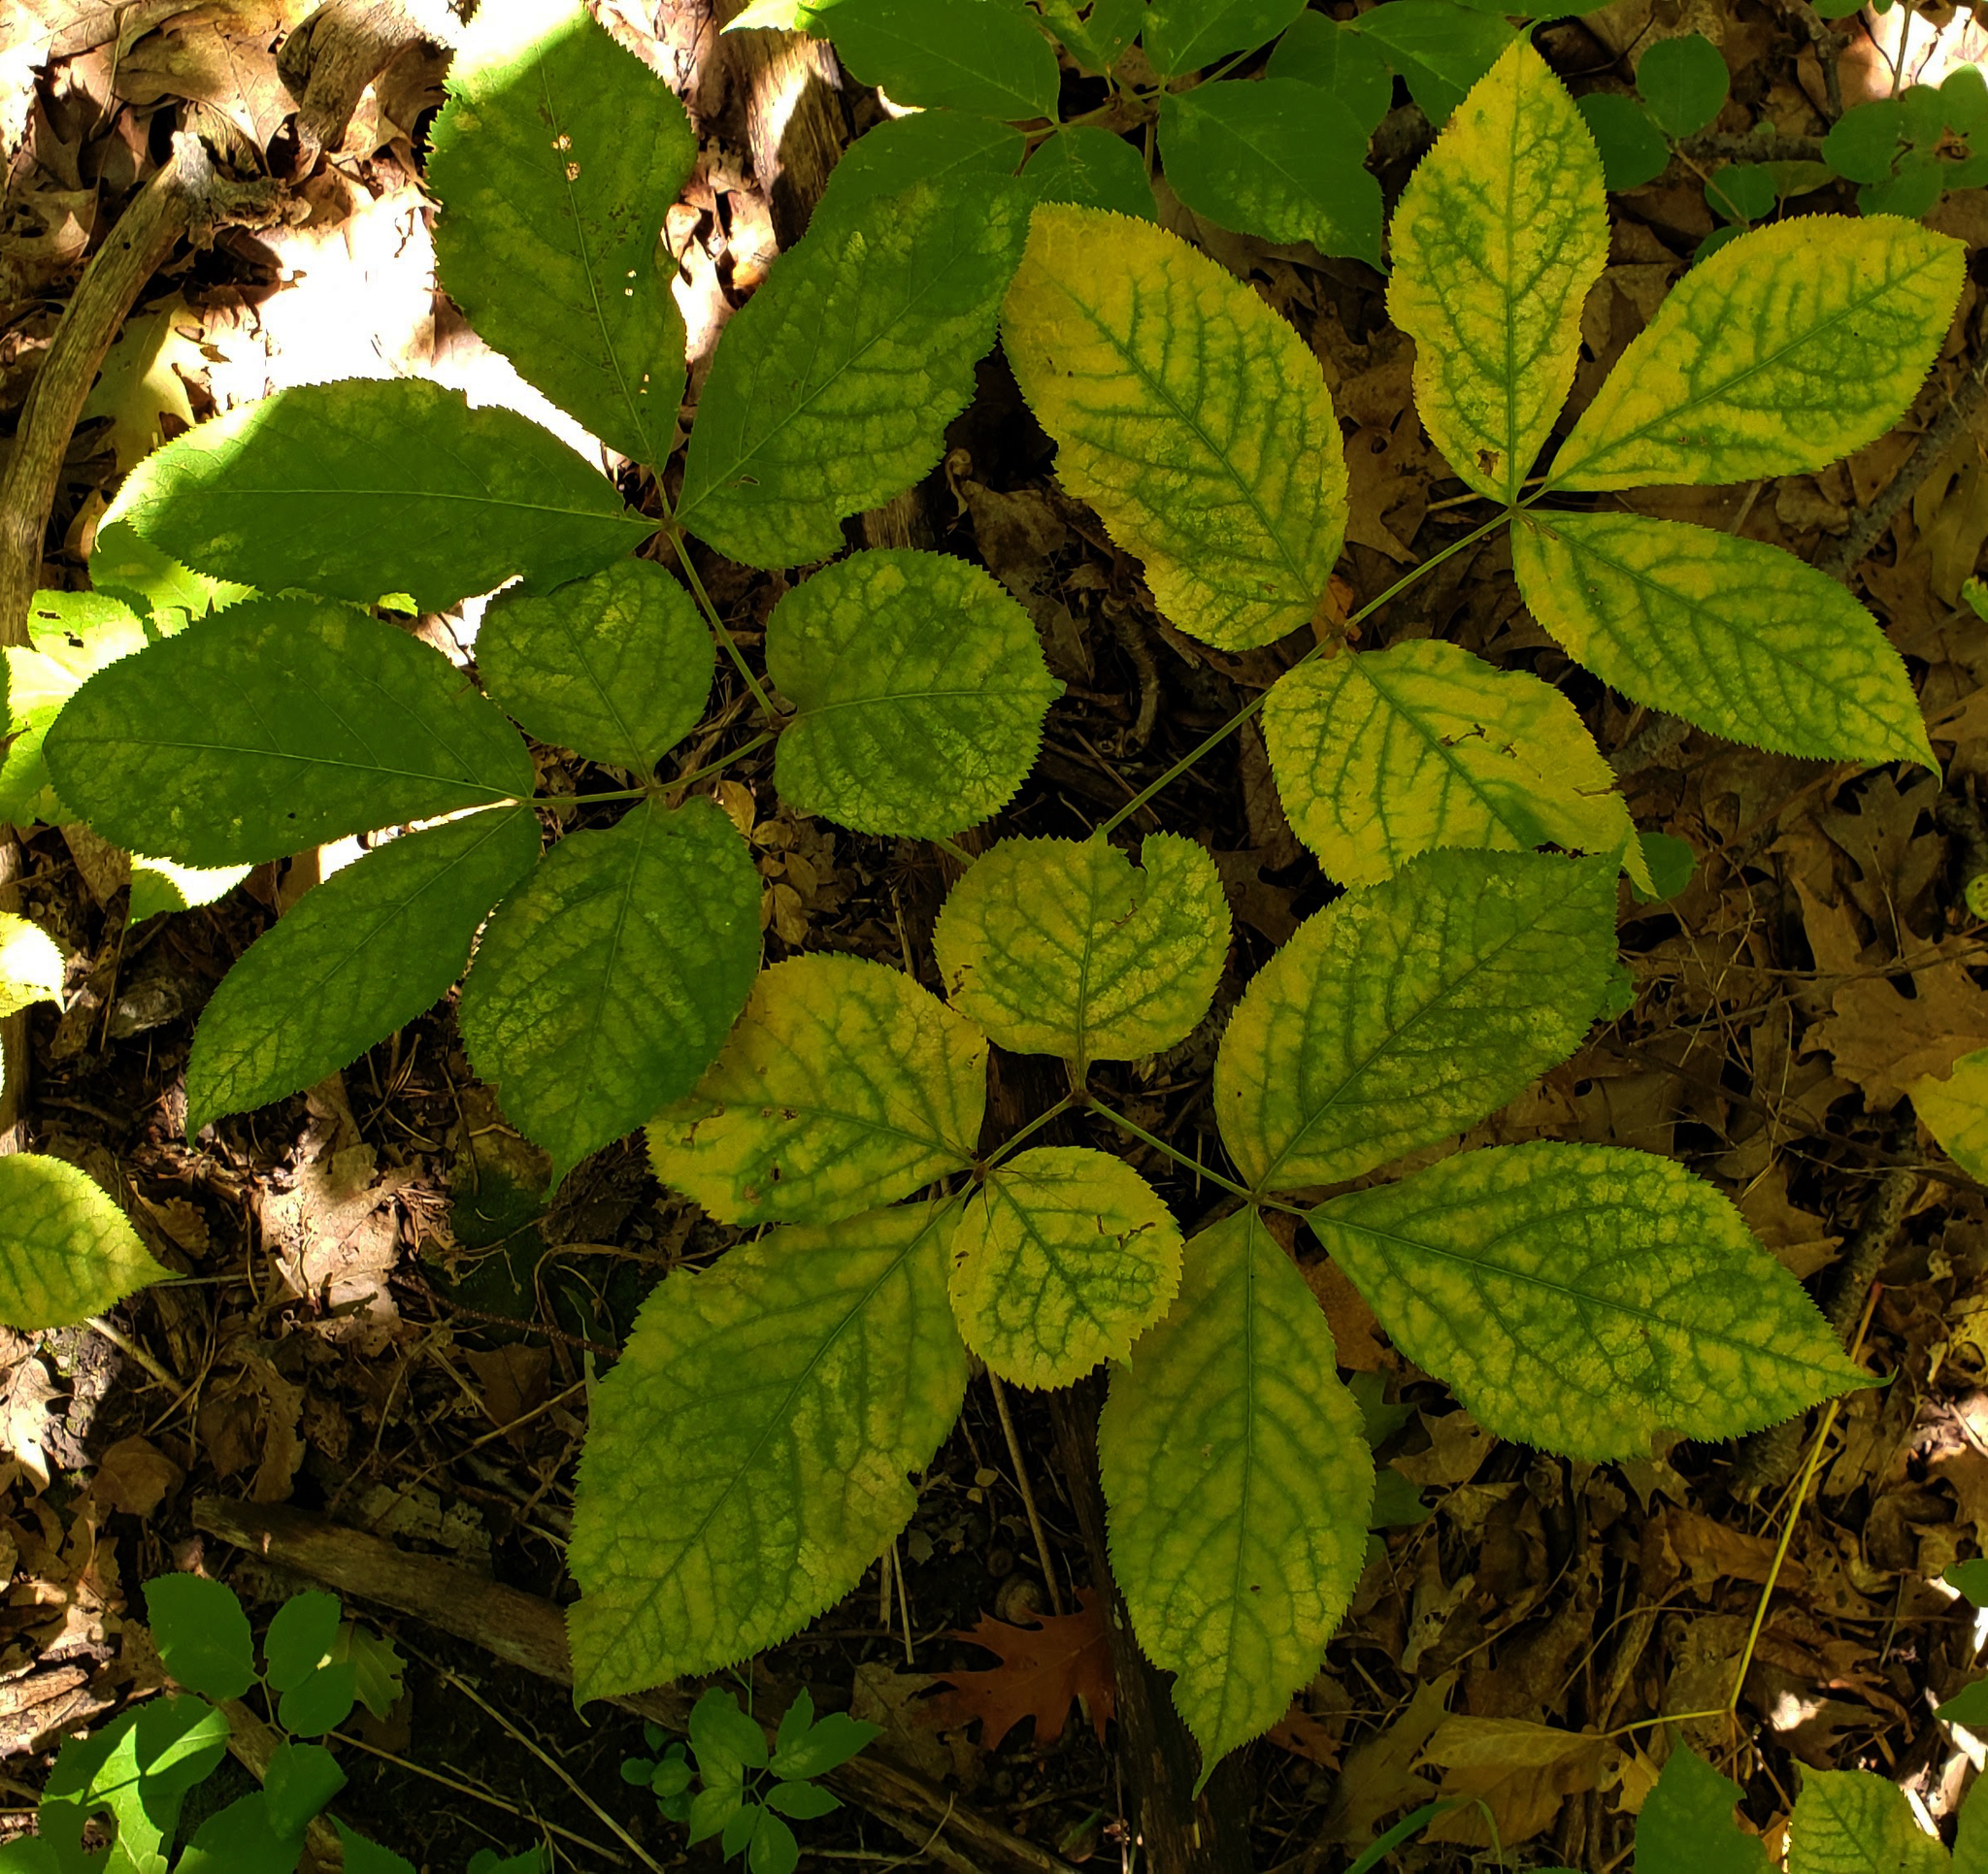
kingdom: Plantae
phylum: Tracheophyta
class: Magnoliopsida
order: Apiales
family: Araliaceae
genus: Aralia
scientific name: Aralia nudicaulis
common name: Wild sarsaparilla
